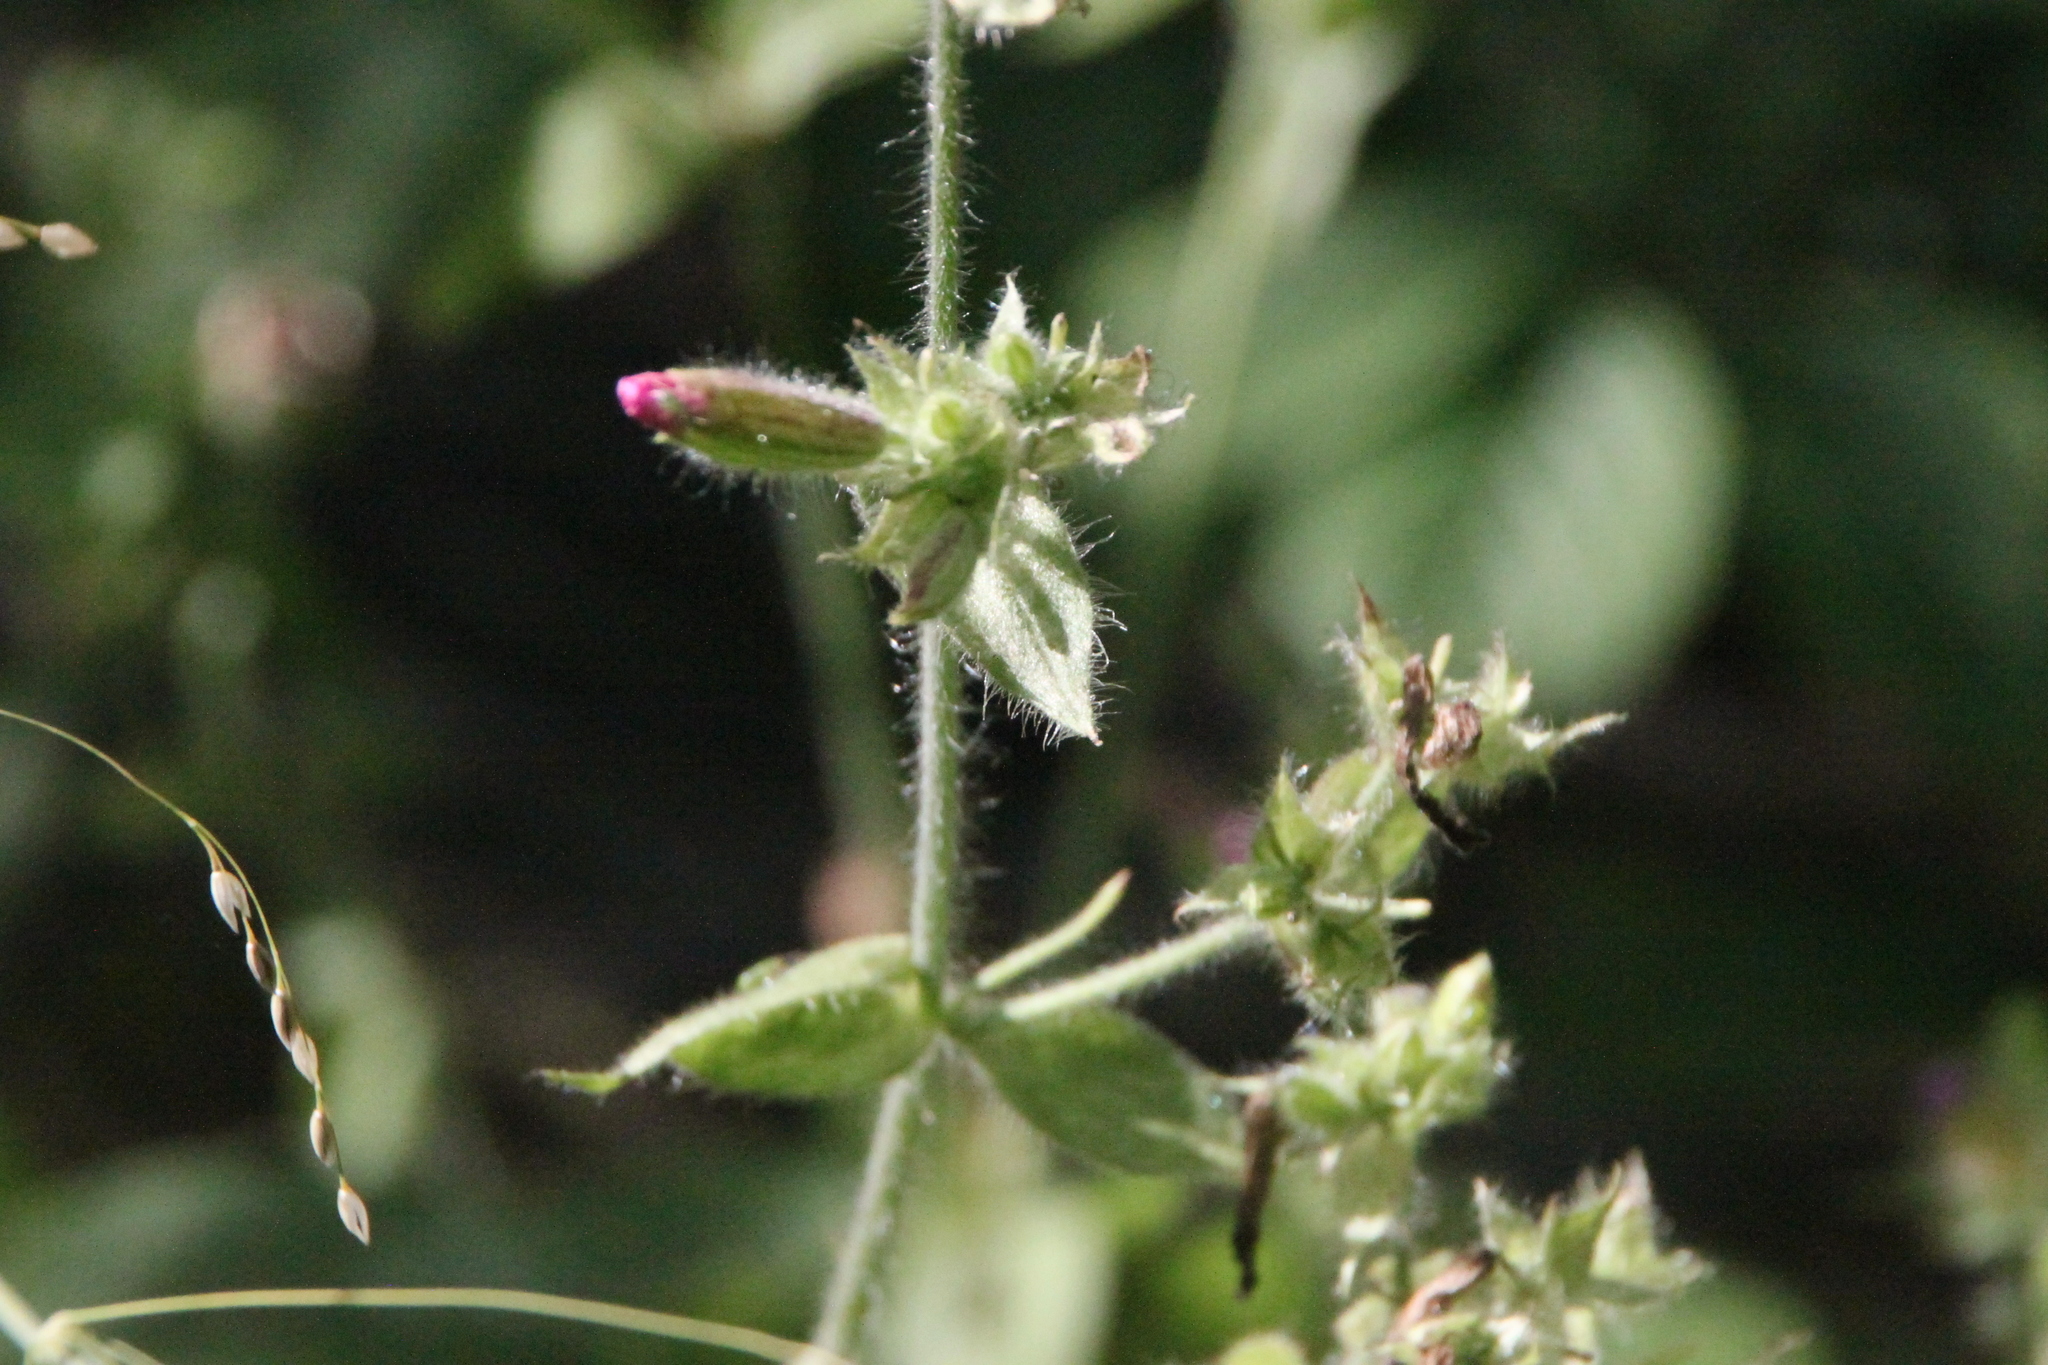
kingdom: Plantae
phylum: Tracheophyta
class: Magnoliopsida
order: Caryophyllales
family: Caryophyllaceae
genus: Silene
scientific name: Silene dioica
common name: Red campion
